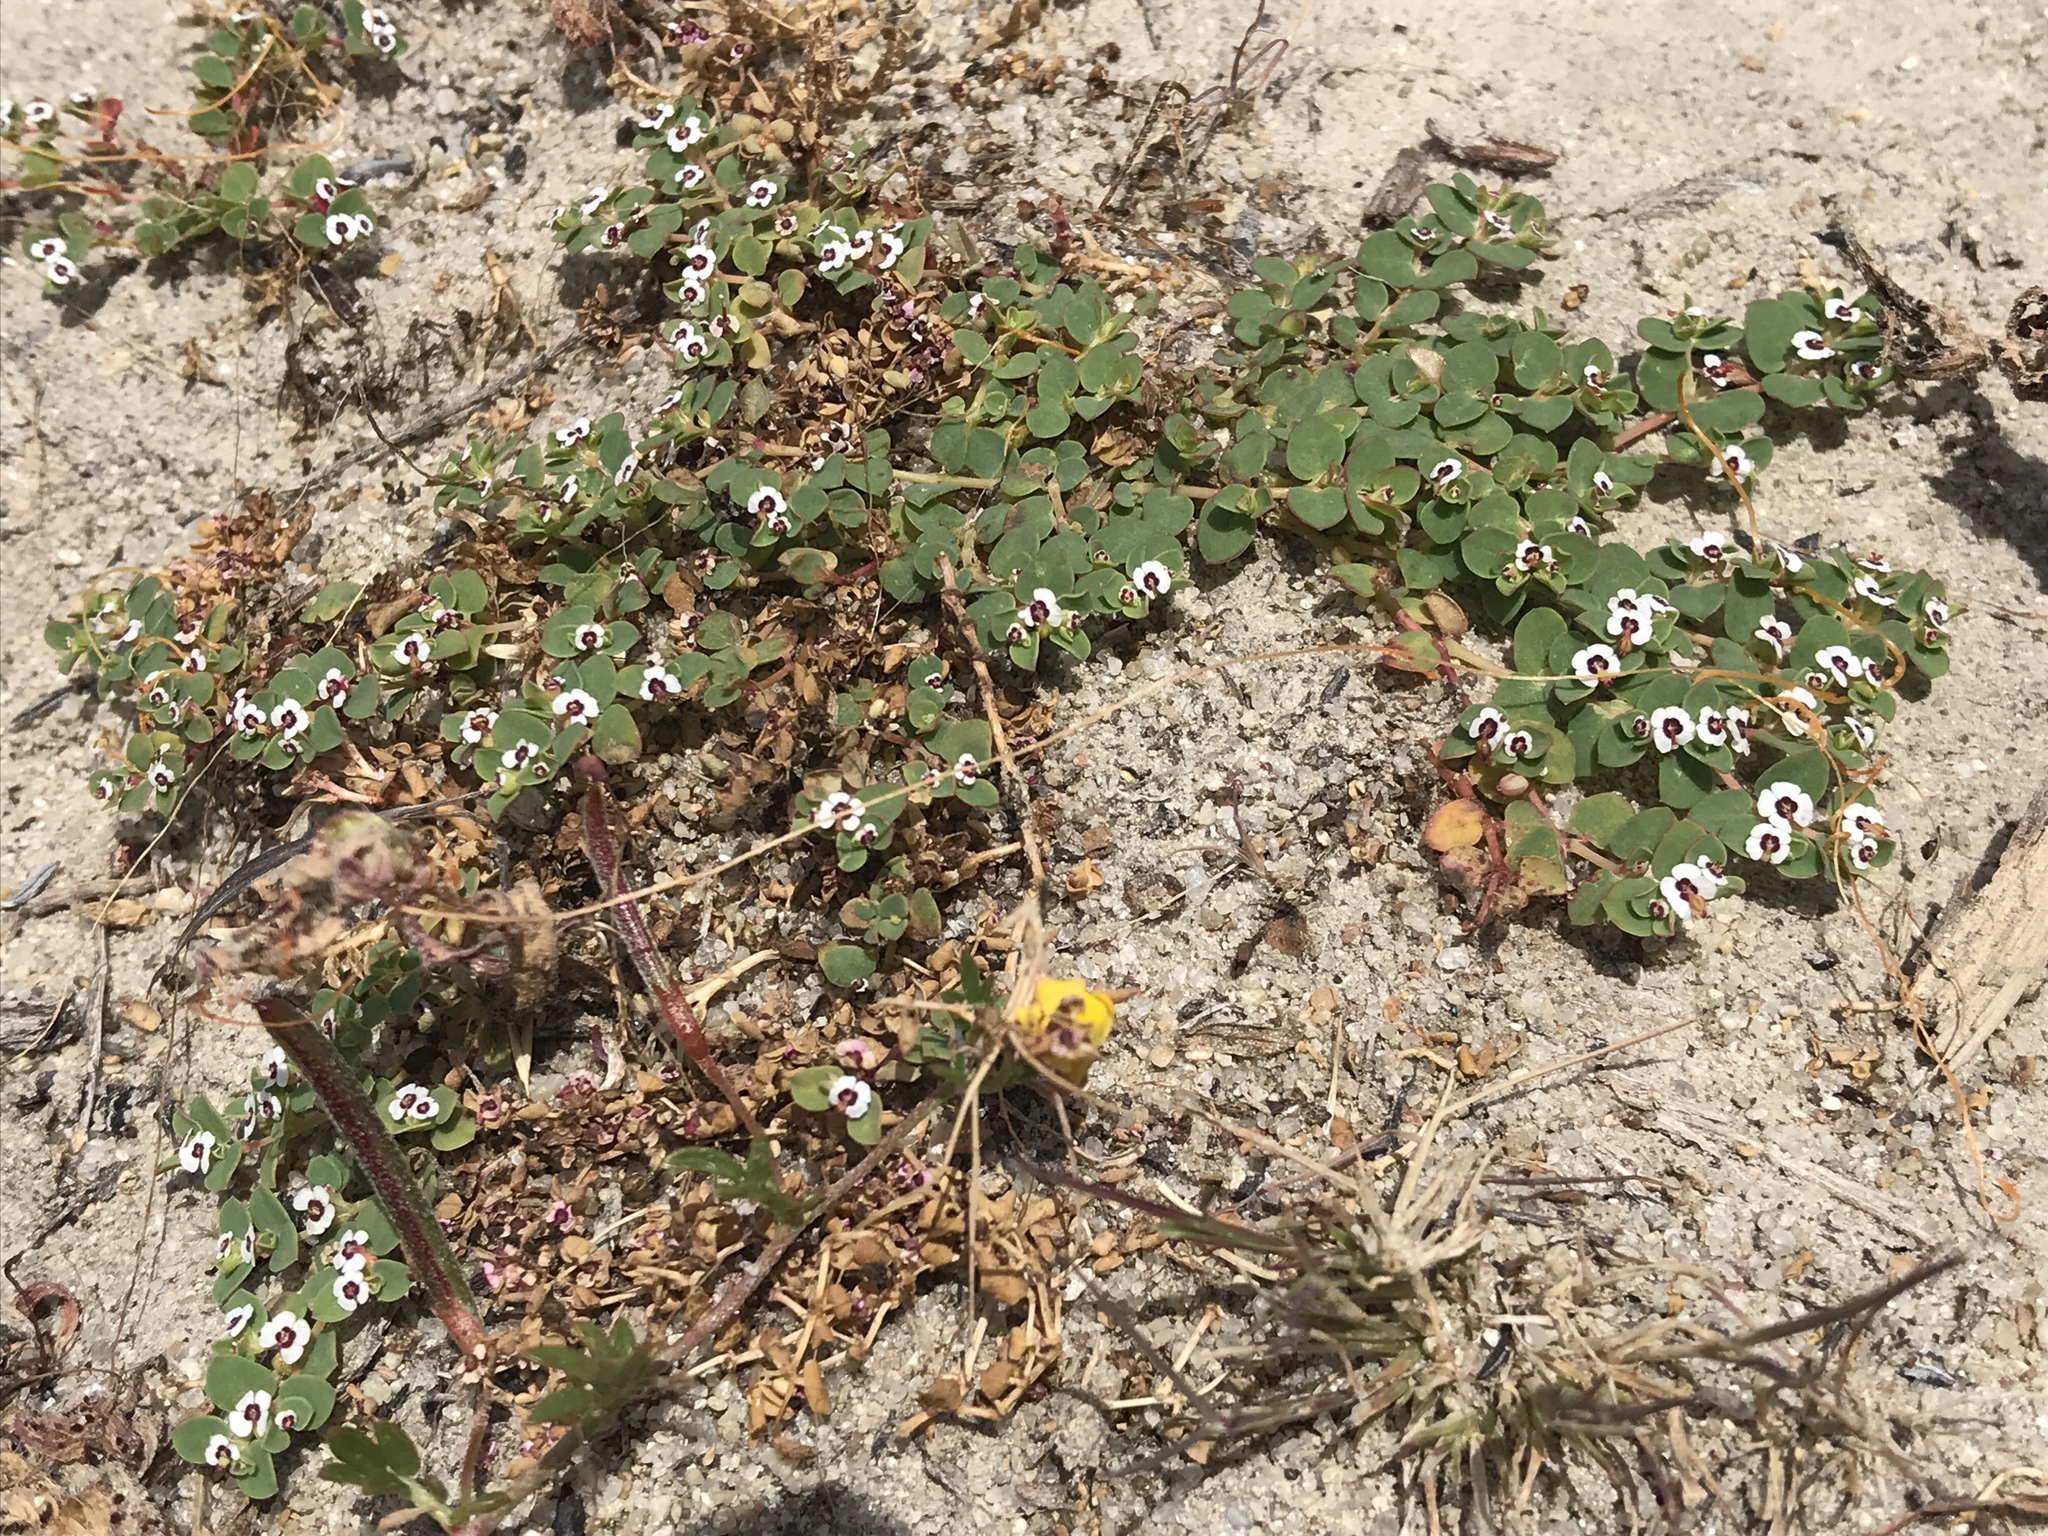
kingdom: Plantae
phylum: Tracheophyta
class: Magnoliopsida
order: Malpighiales
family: Euphorbiaceae
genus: Euphorbia
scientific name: Euphorbia polycarpa
